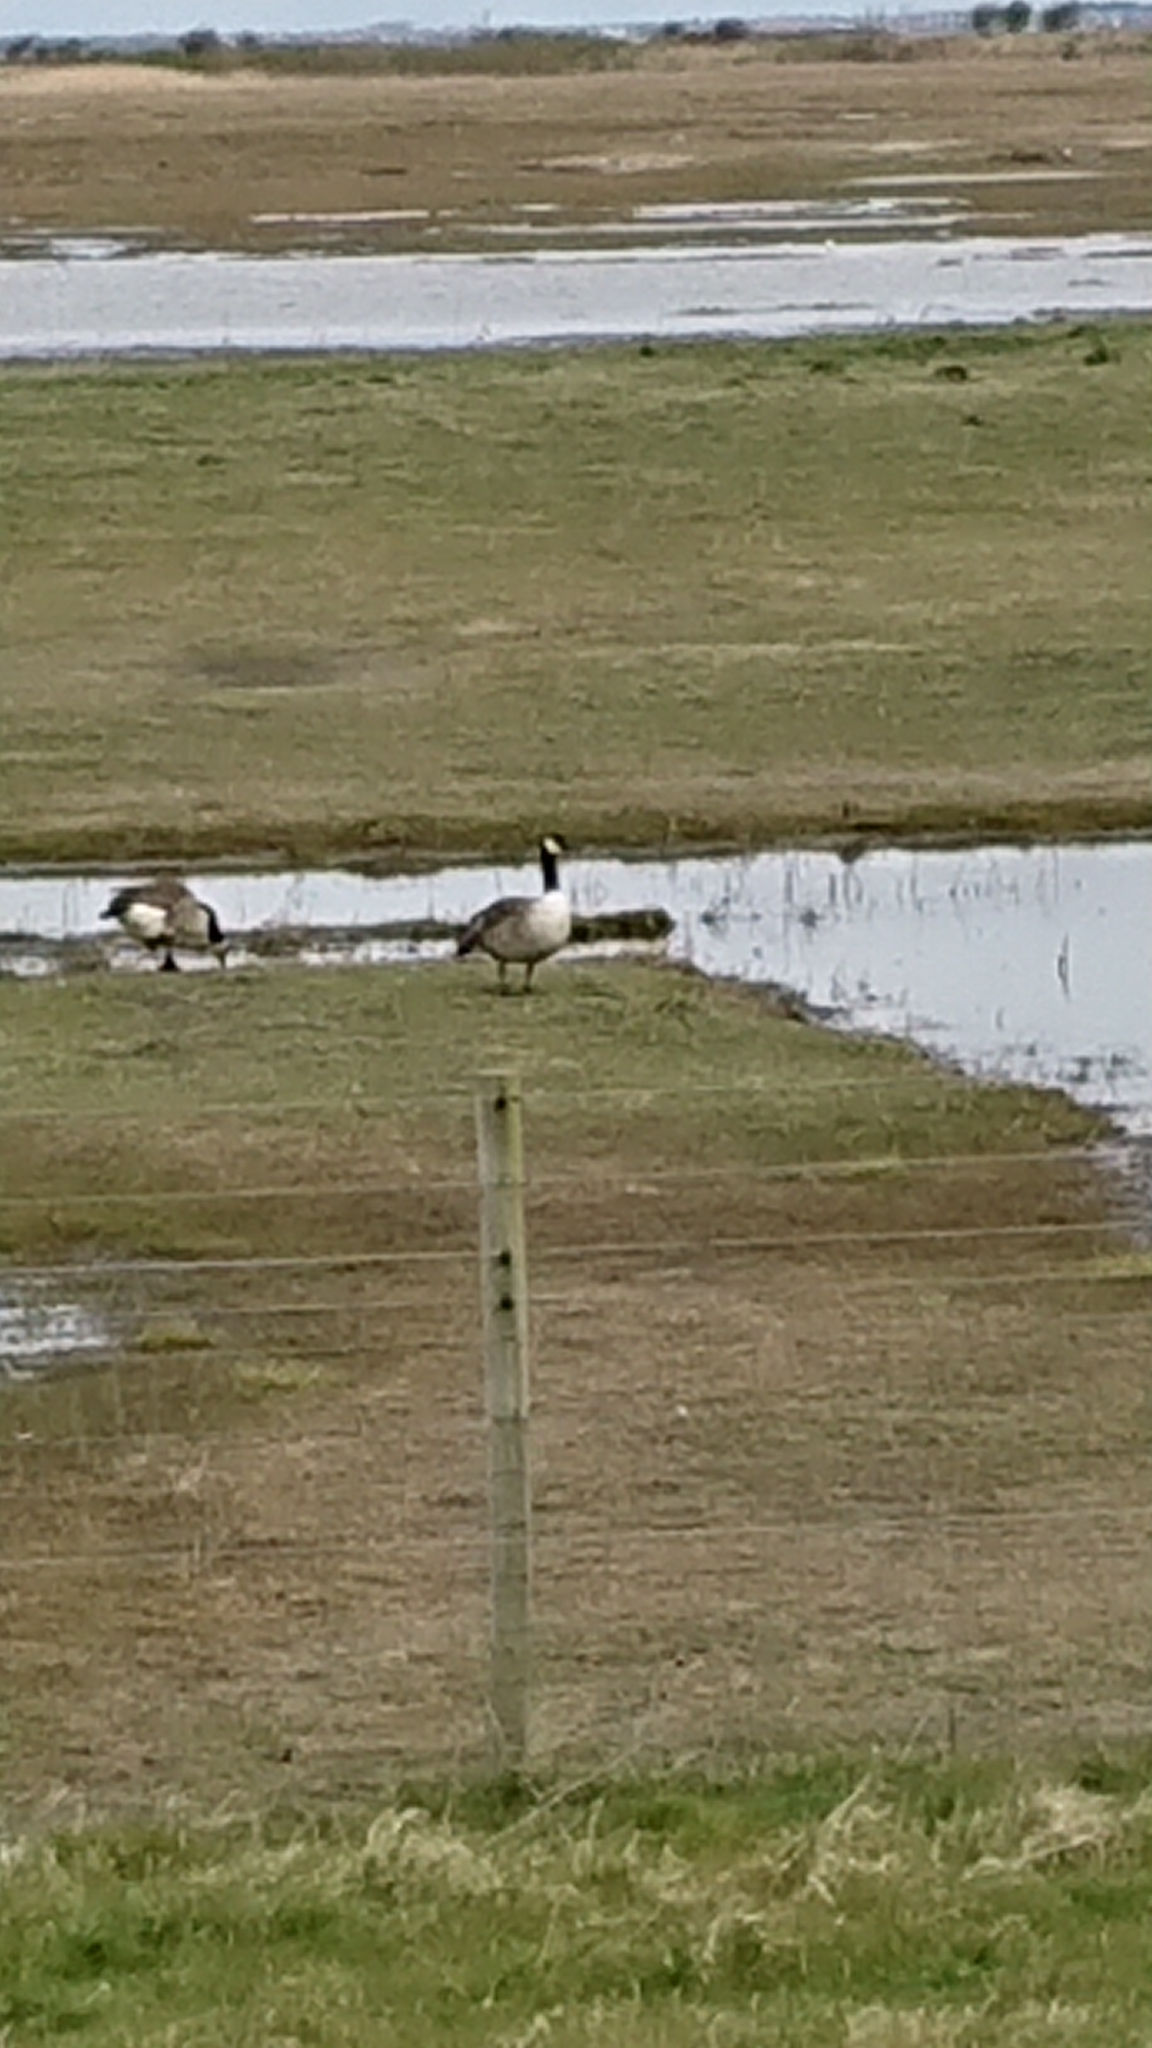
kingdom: Animalia
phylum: Chordata
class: Aves
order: Anseriformes
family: Anatidae
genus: Branta
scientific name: Branta canadensis
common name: Canada goose
